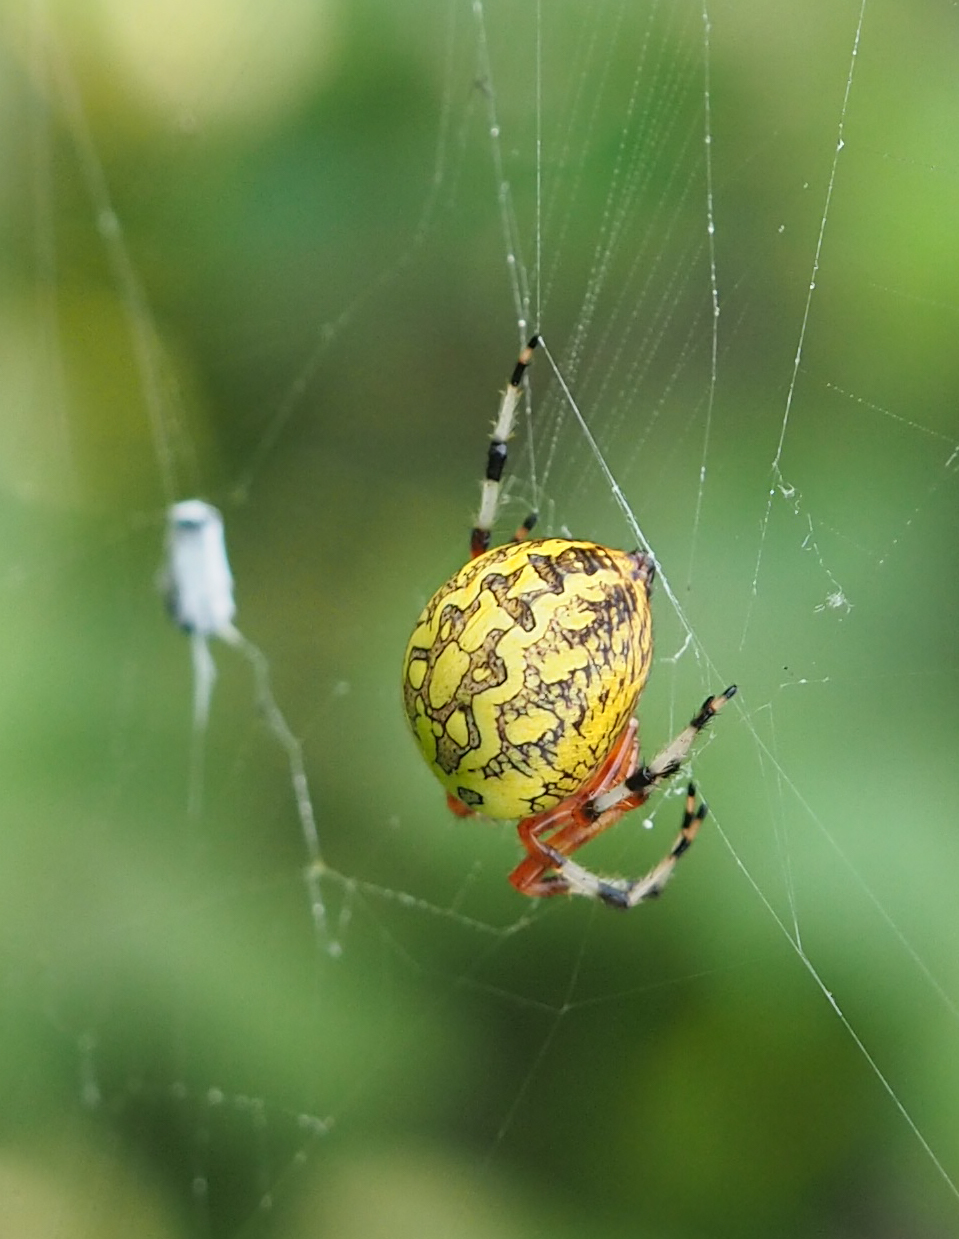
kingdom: Animalia
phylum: Arthropoda
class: Arachnida
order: Araneae
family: Araneidae
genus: Araneus
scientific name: Araneus marmoreus
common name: Marbled orbweaver
